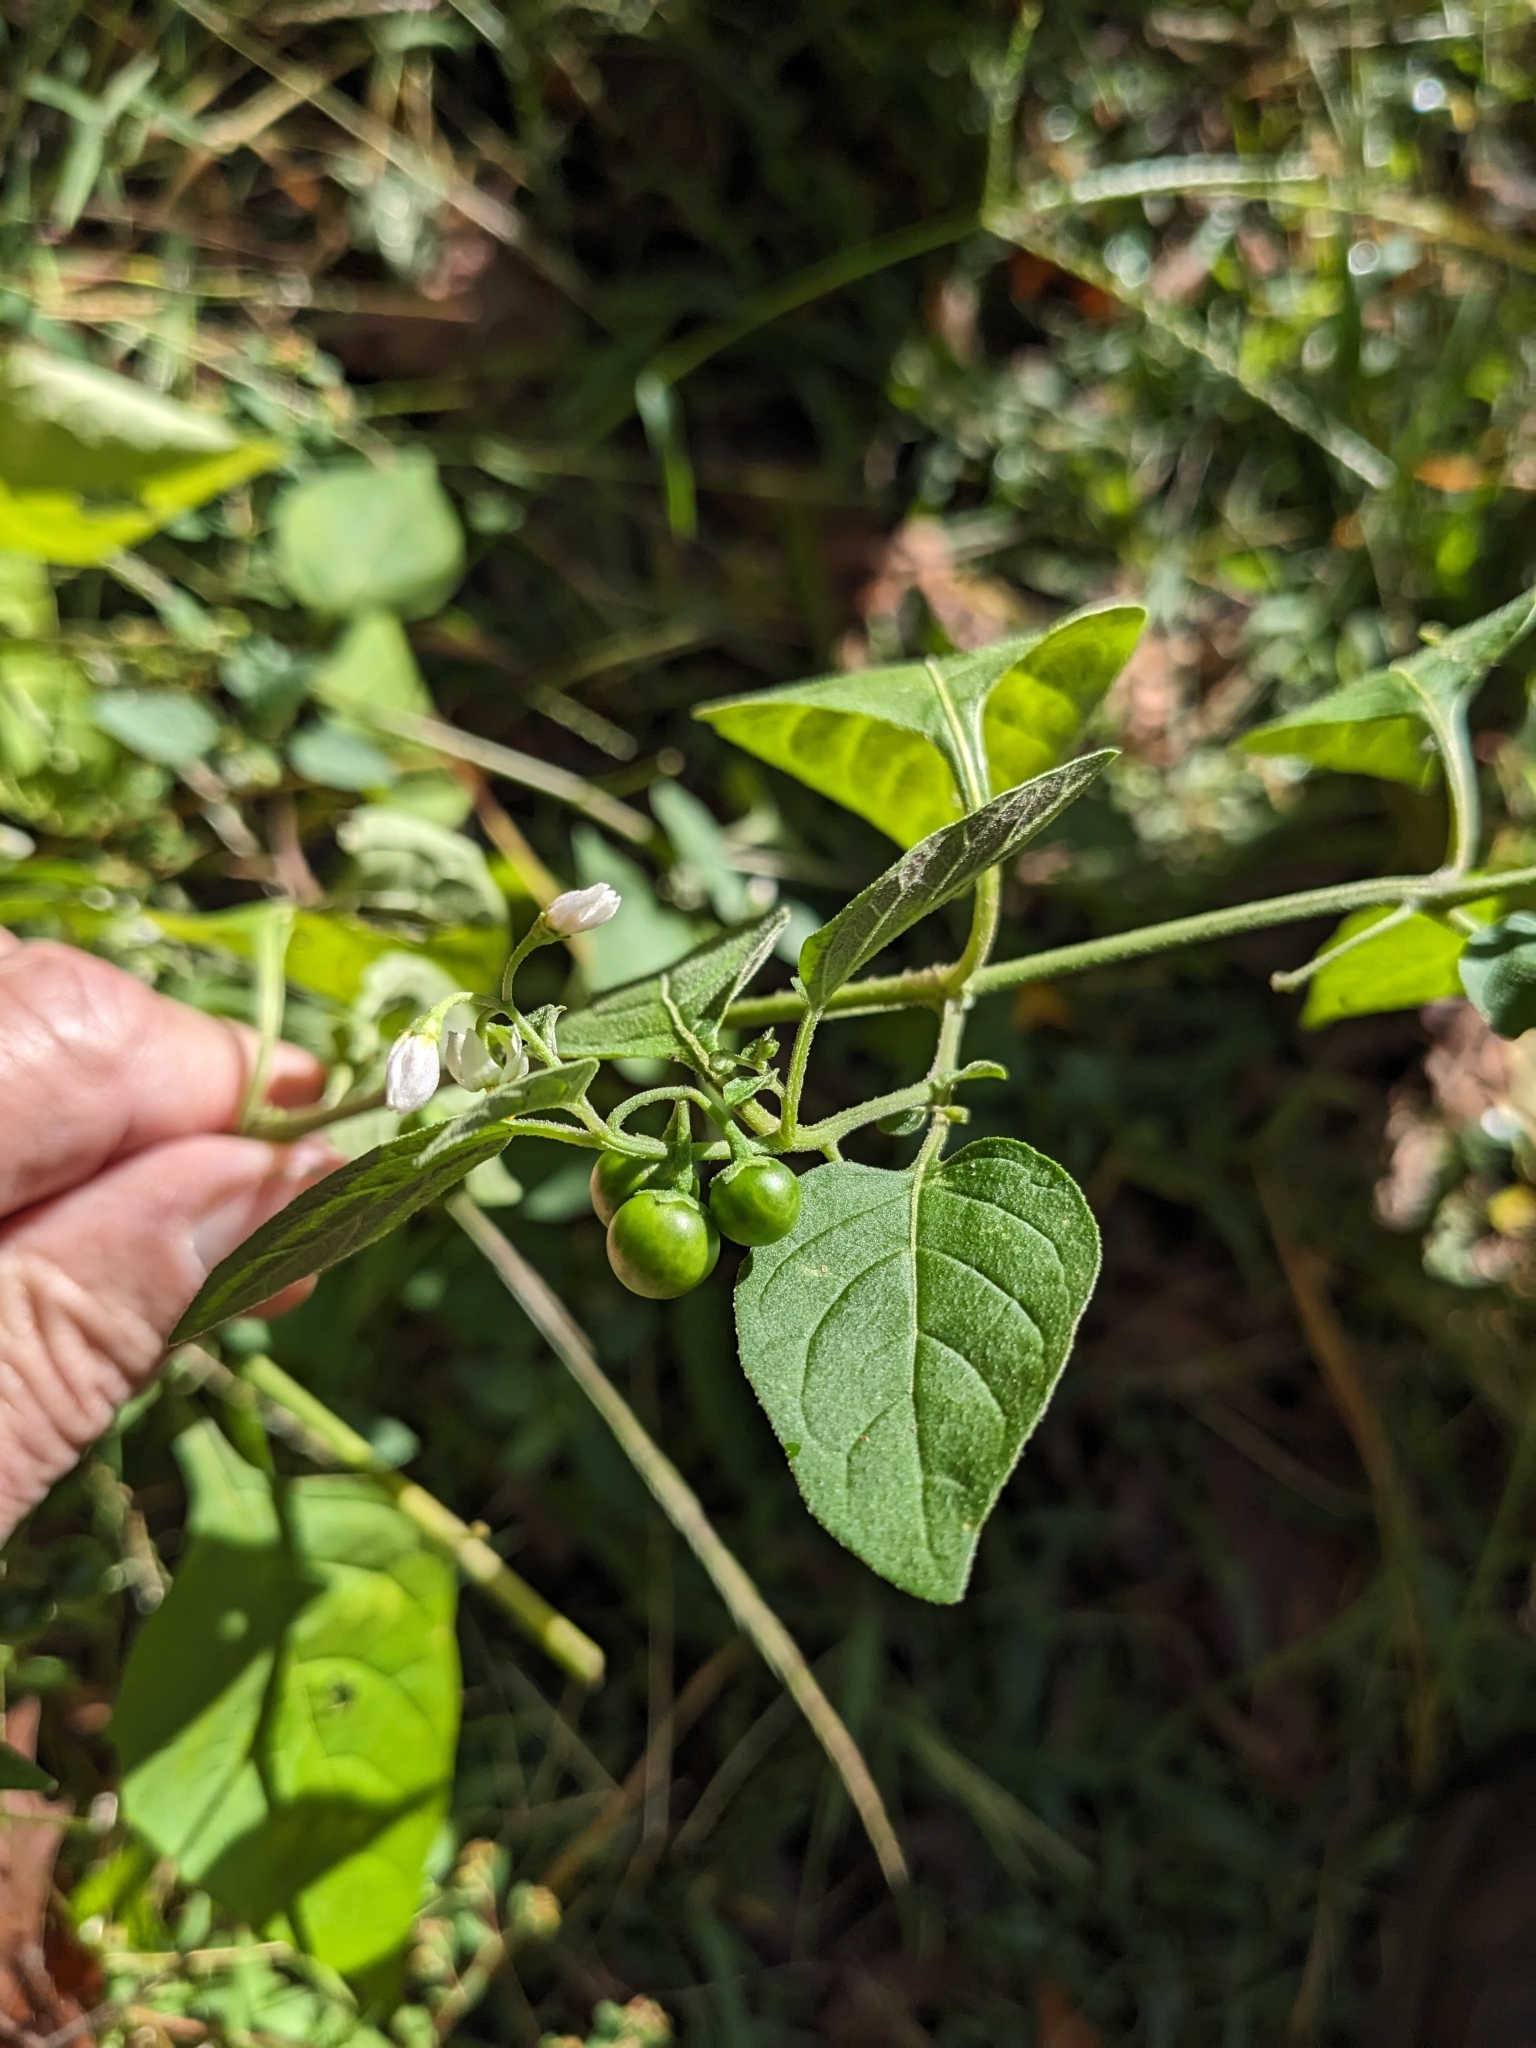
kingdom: Plantae
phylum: Tracheophyta
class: Magnoliopsida
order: Solanales
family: Solanaceae
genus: Solanum
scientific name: Solanum emulans
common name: Eastern black nightshade
